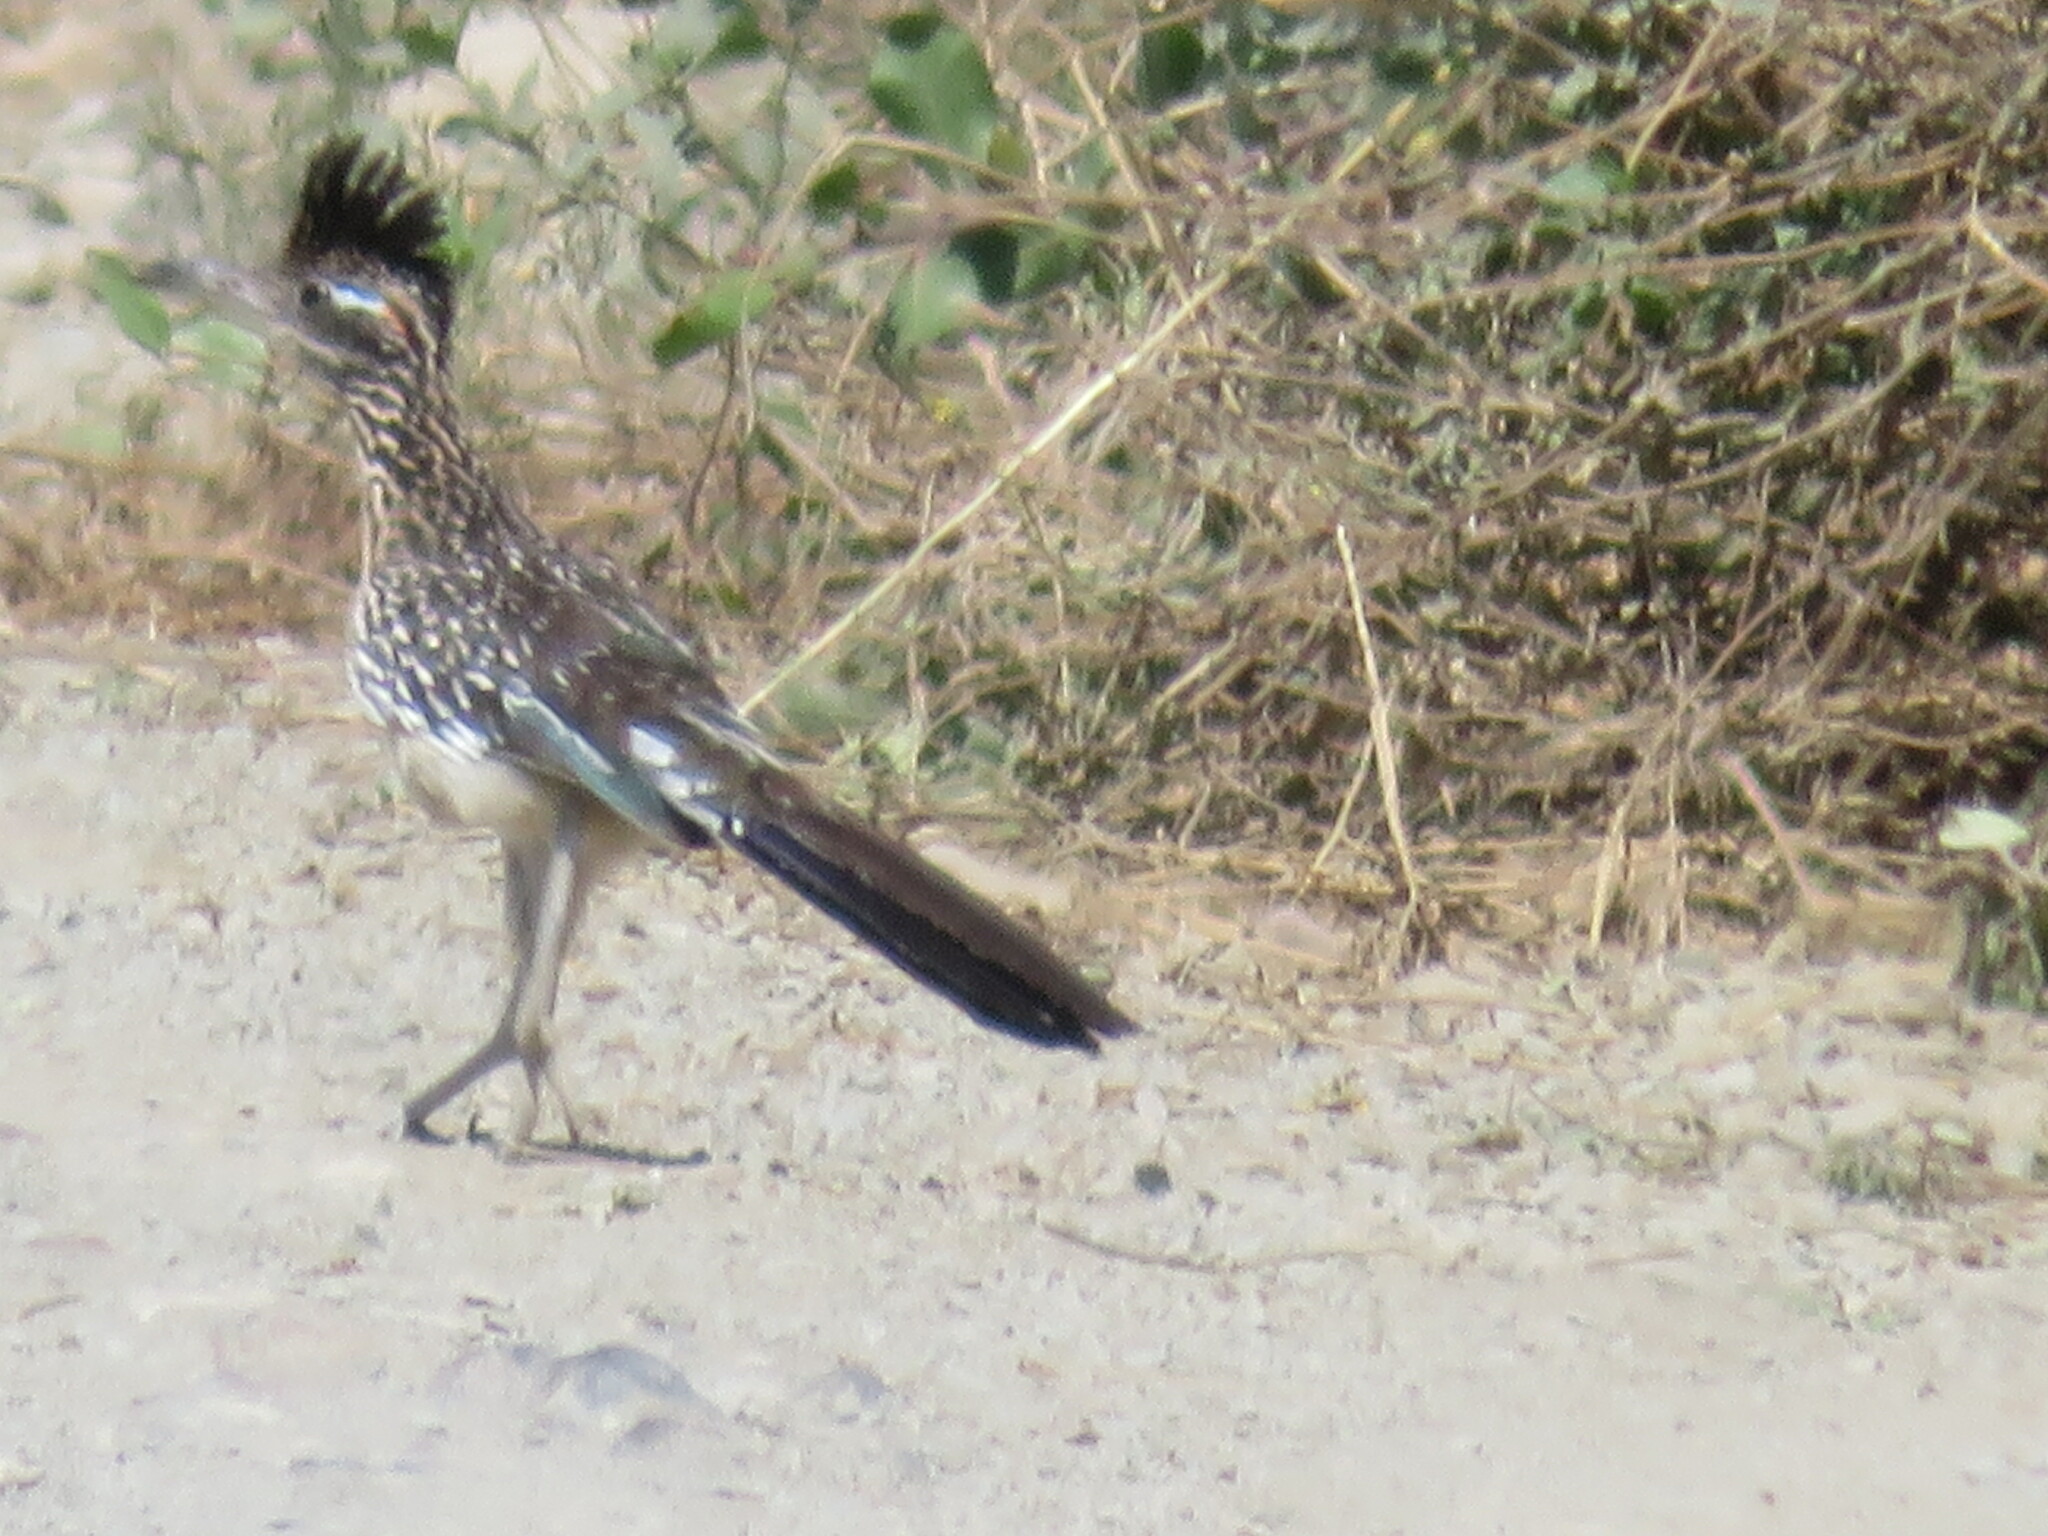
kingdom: Animalia
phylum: Chordata
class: Aves
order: Cuculiformes
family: Cuculidae
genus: Geococcyx
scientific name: Geococcyx californianus
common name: Greater roadrunner
